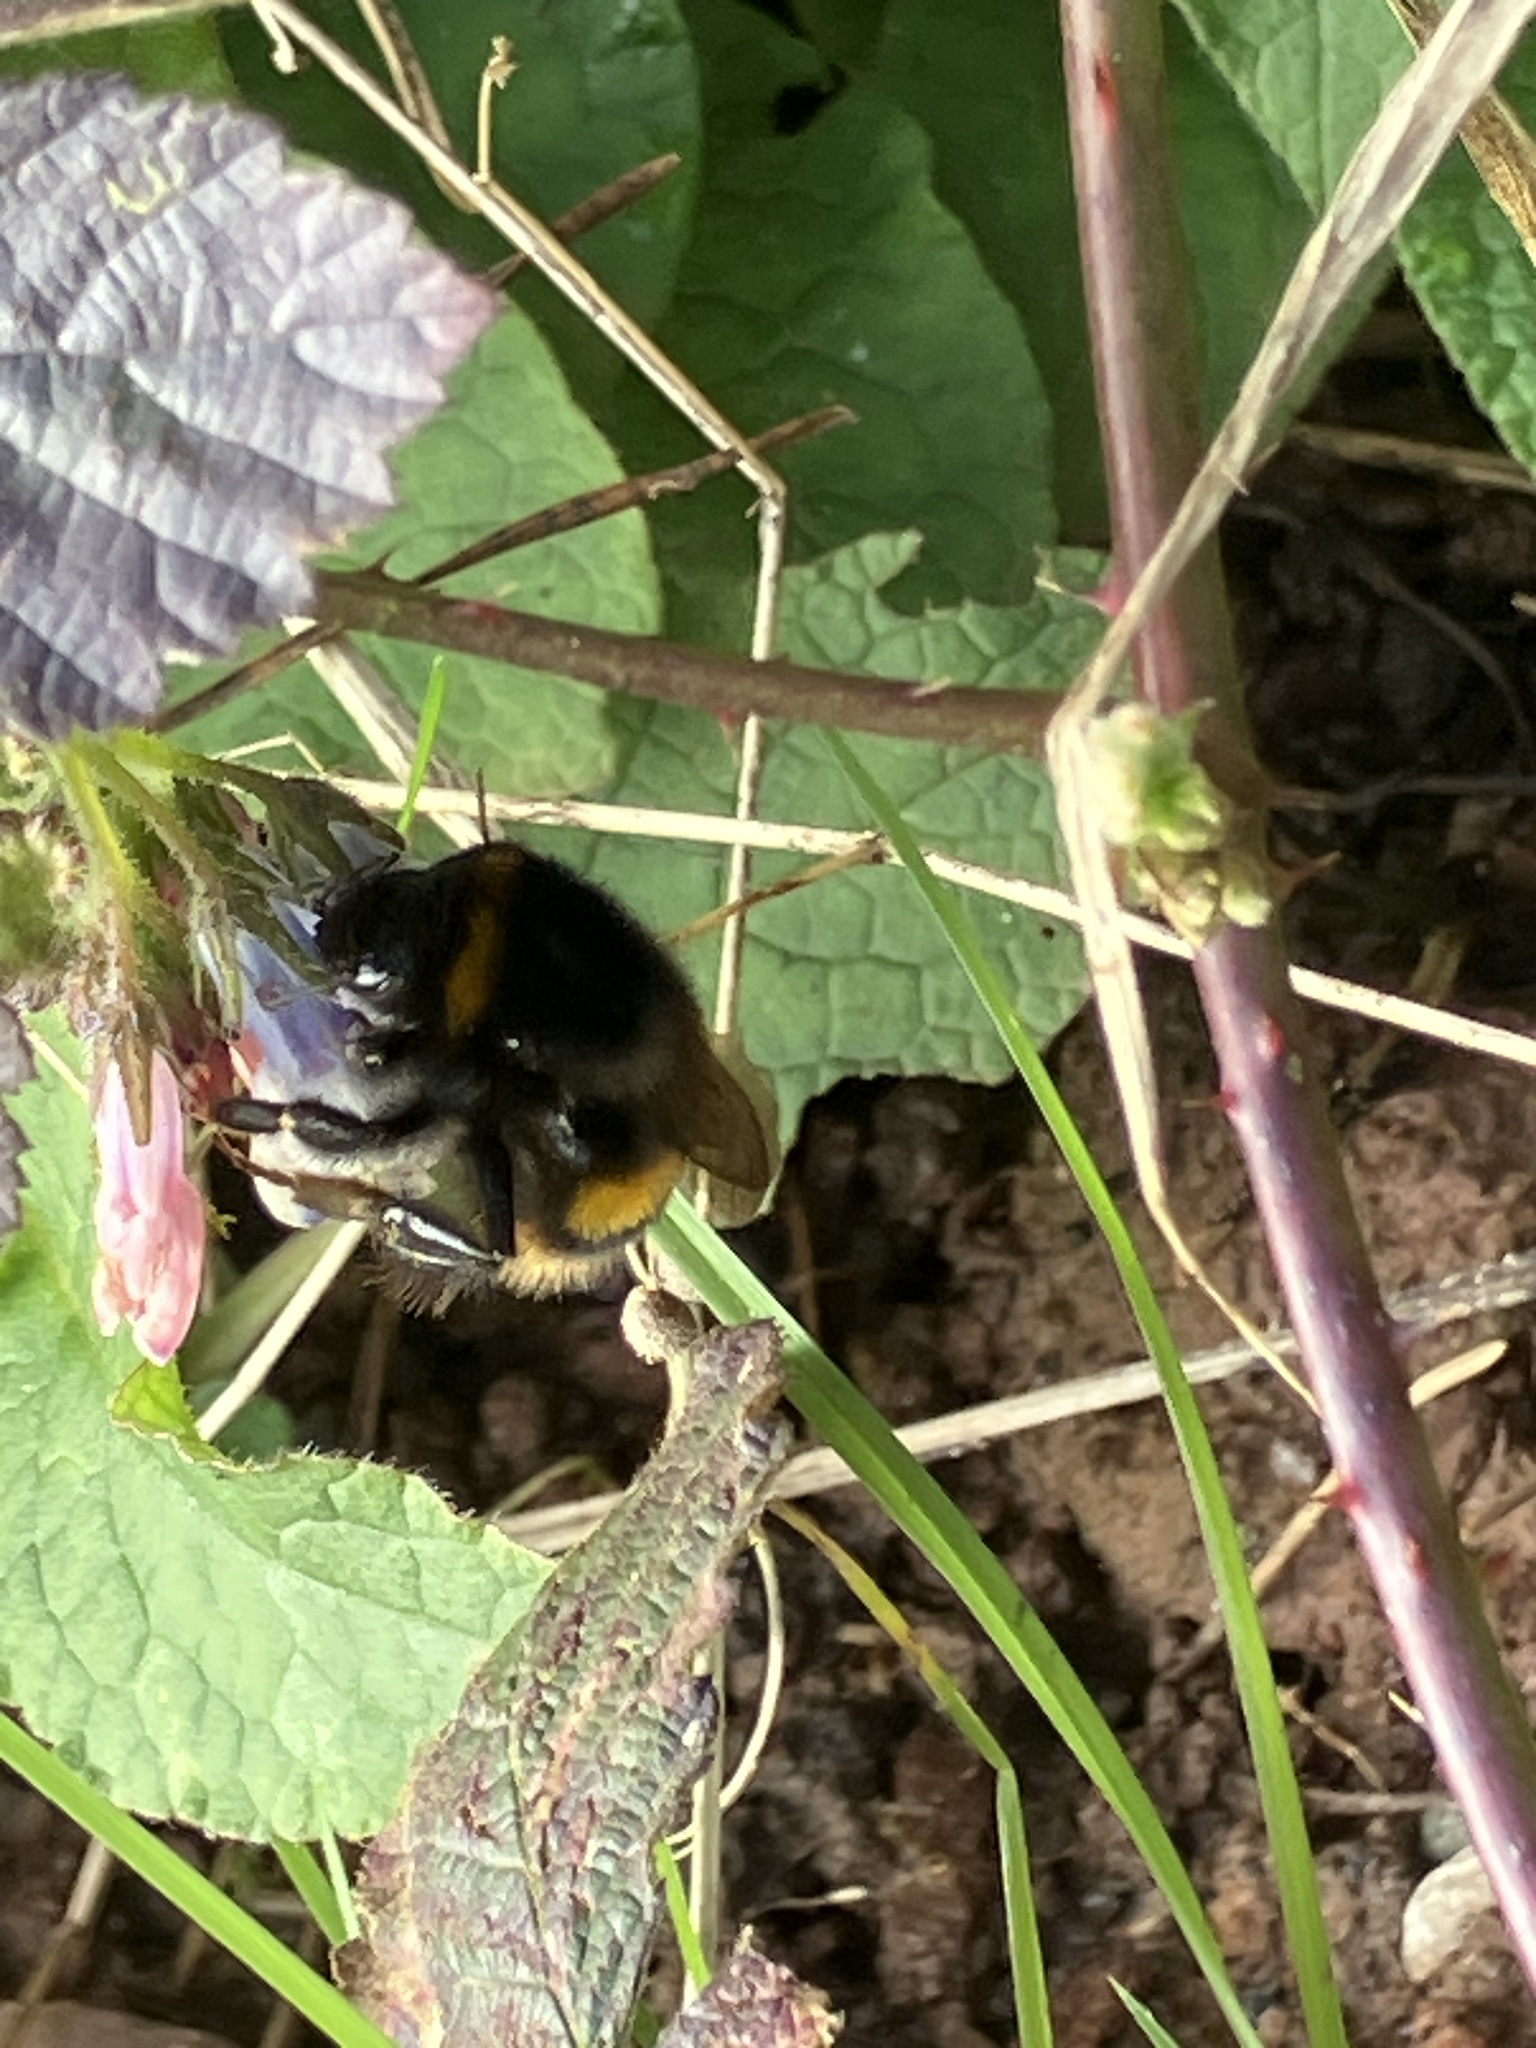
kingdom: Animalia
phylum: Arthropoda
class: Insecta
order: Hymenoptera
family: Apidae
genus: Bombus
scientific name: Bombus terrestris
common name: Buff-tailed bumblebee
